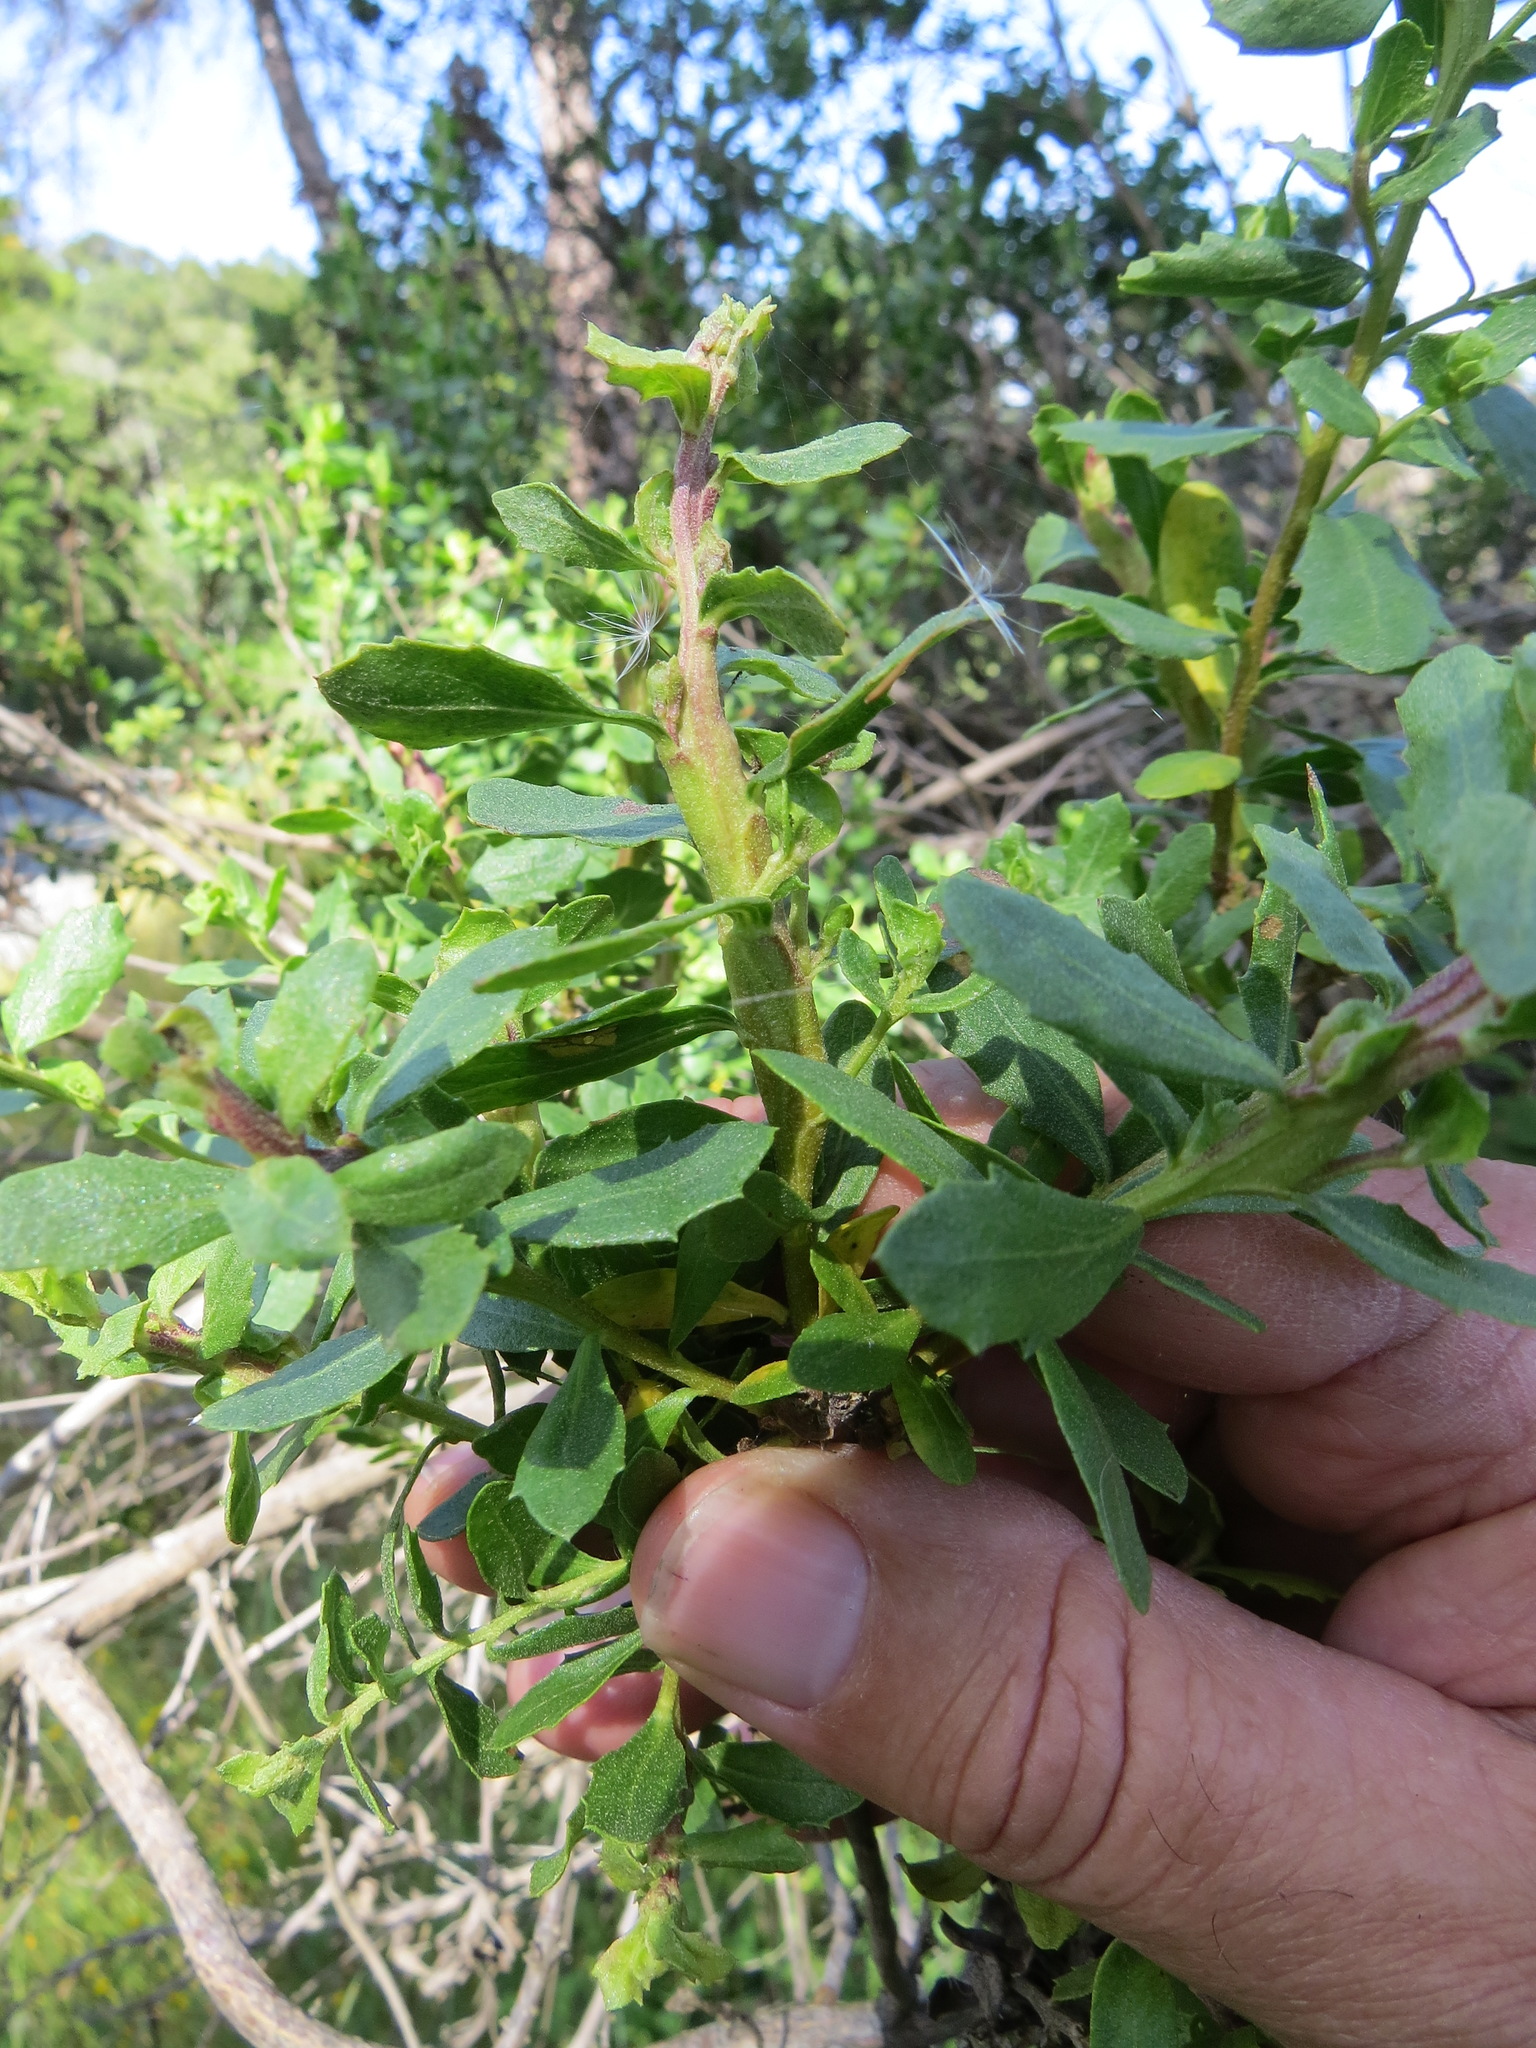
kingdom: Animalia
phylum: Arthropoda
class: Insecta
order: Diptera
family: Cecidomyiidae
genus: Rhopalomyia
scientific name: Rhopalomyia baccharis
